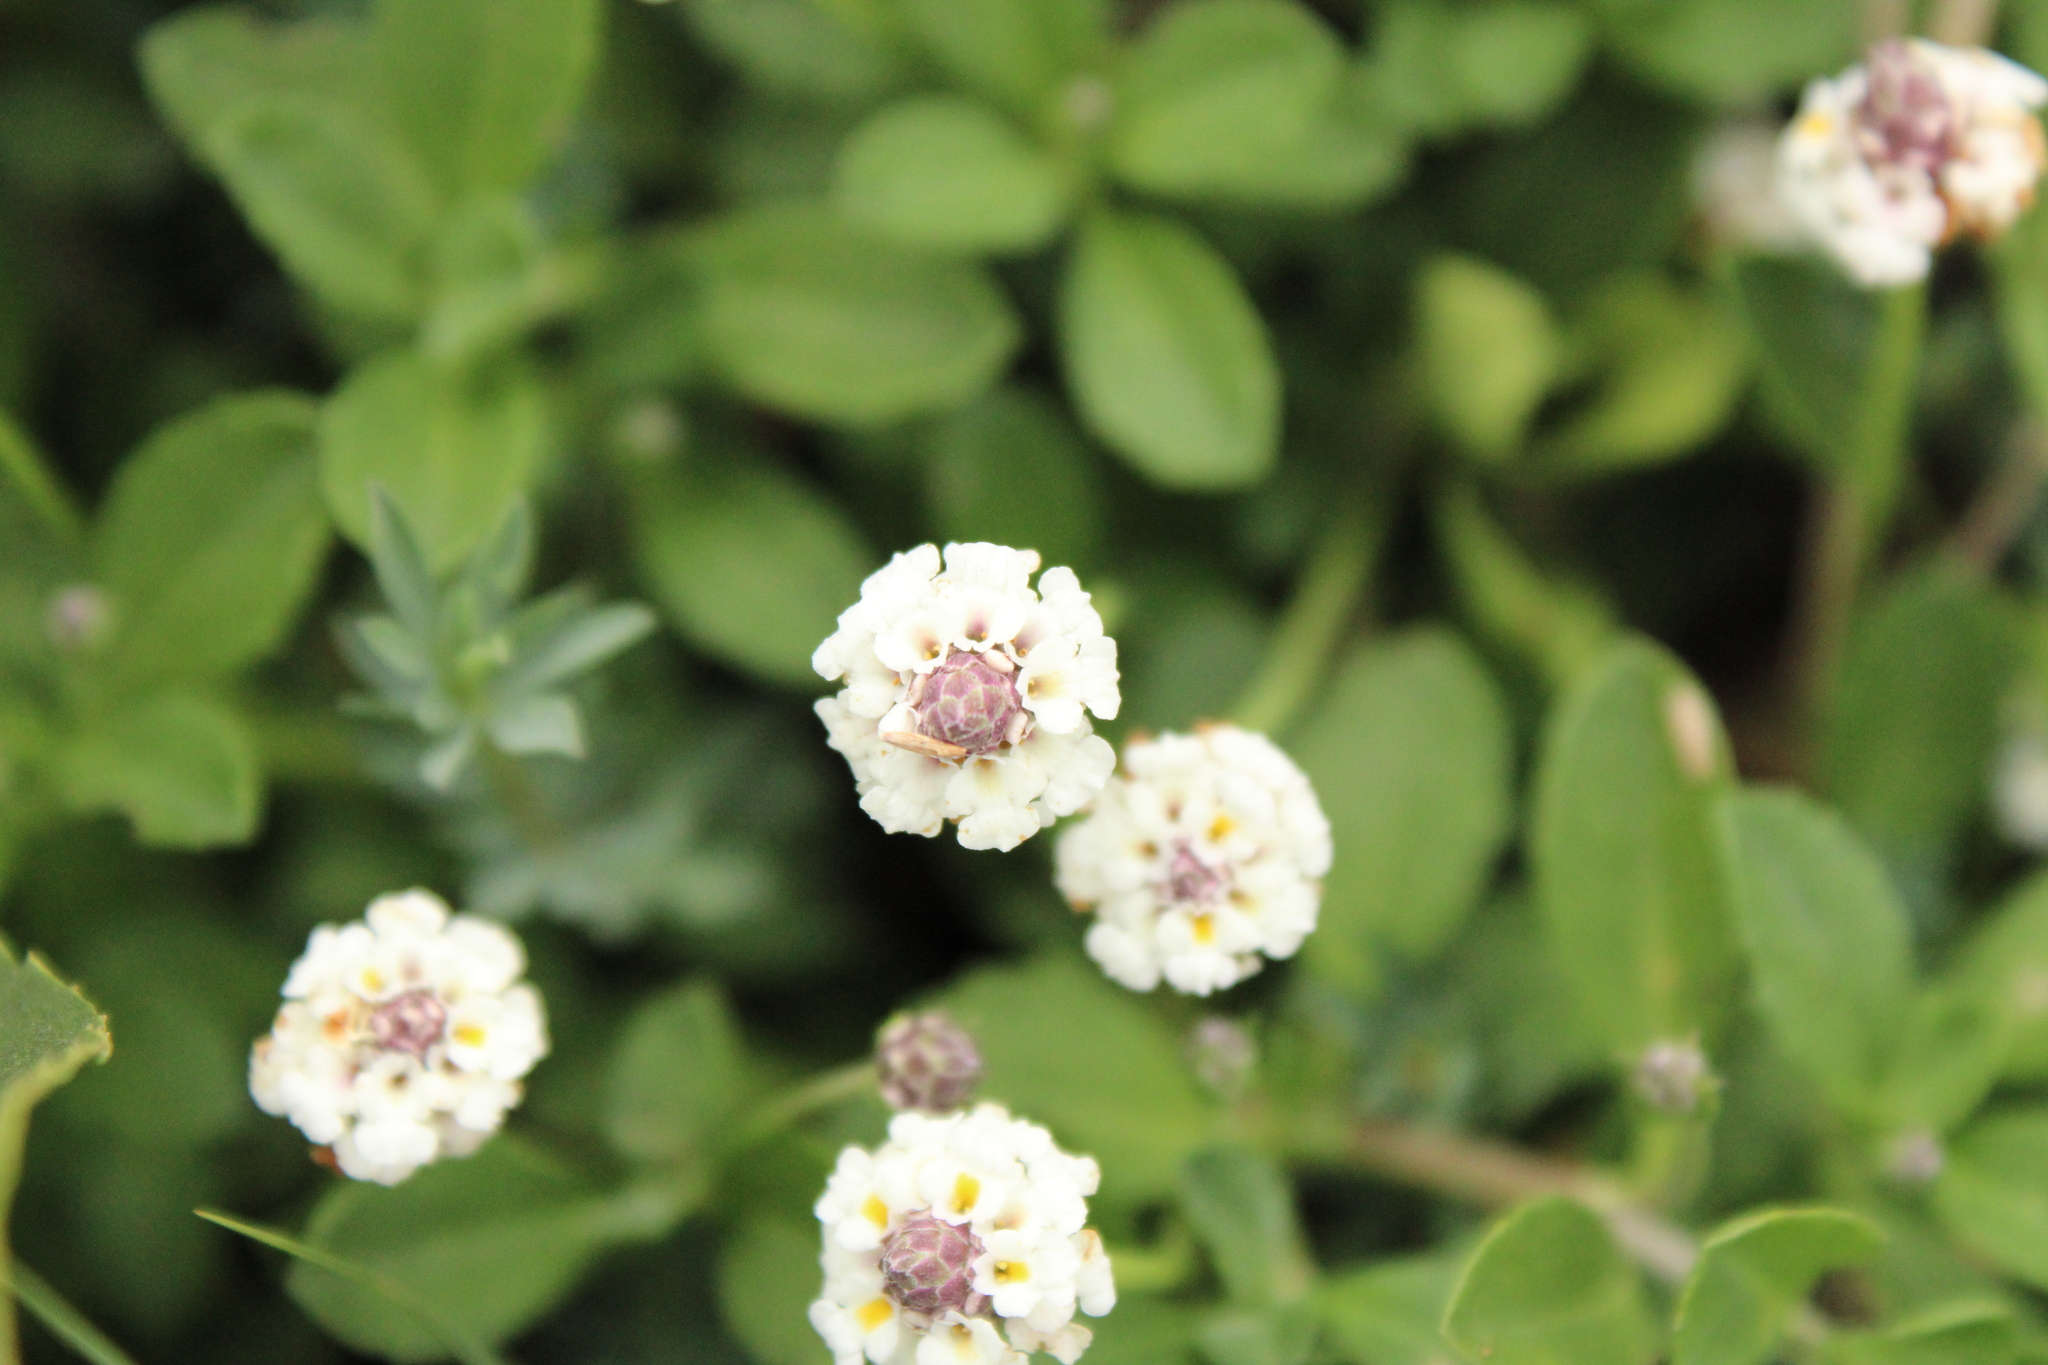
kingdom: Plantae
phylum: Tracheophyta
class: Magnoliopsida
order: Lamiales
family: Verbenaceae
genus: Phyla
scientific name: Phyla nodiflora
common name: Frogfruit
